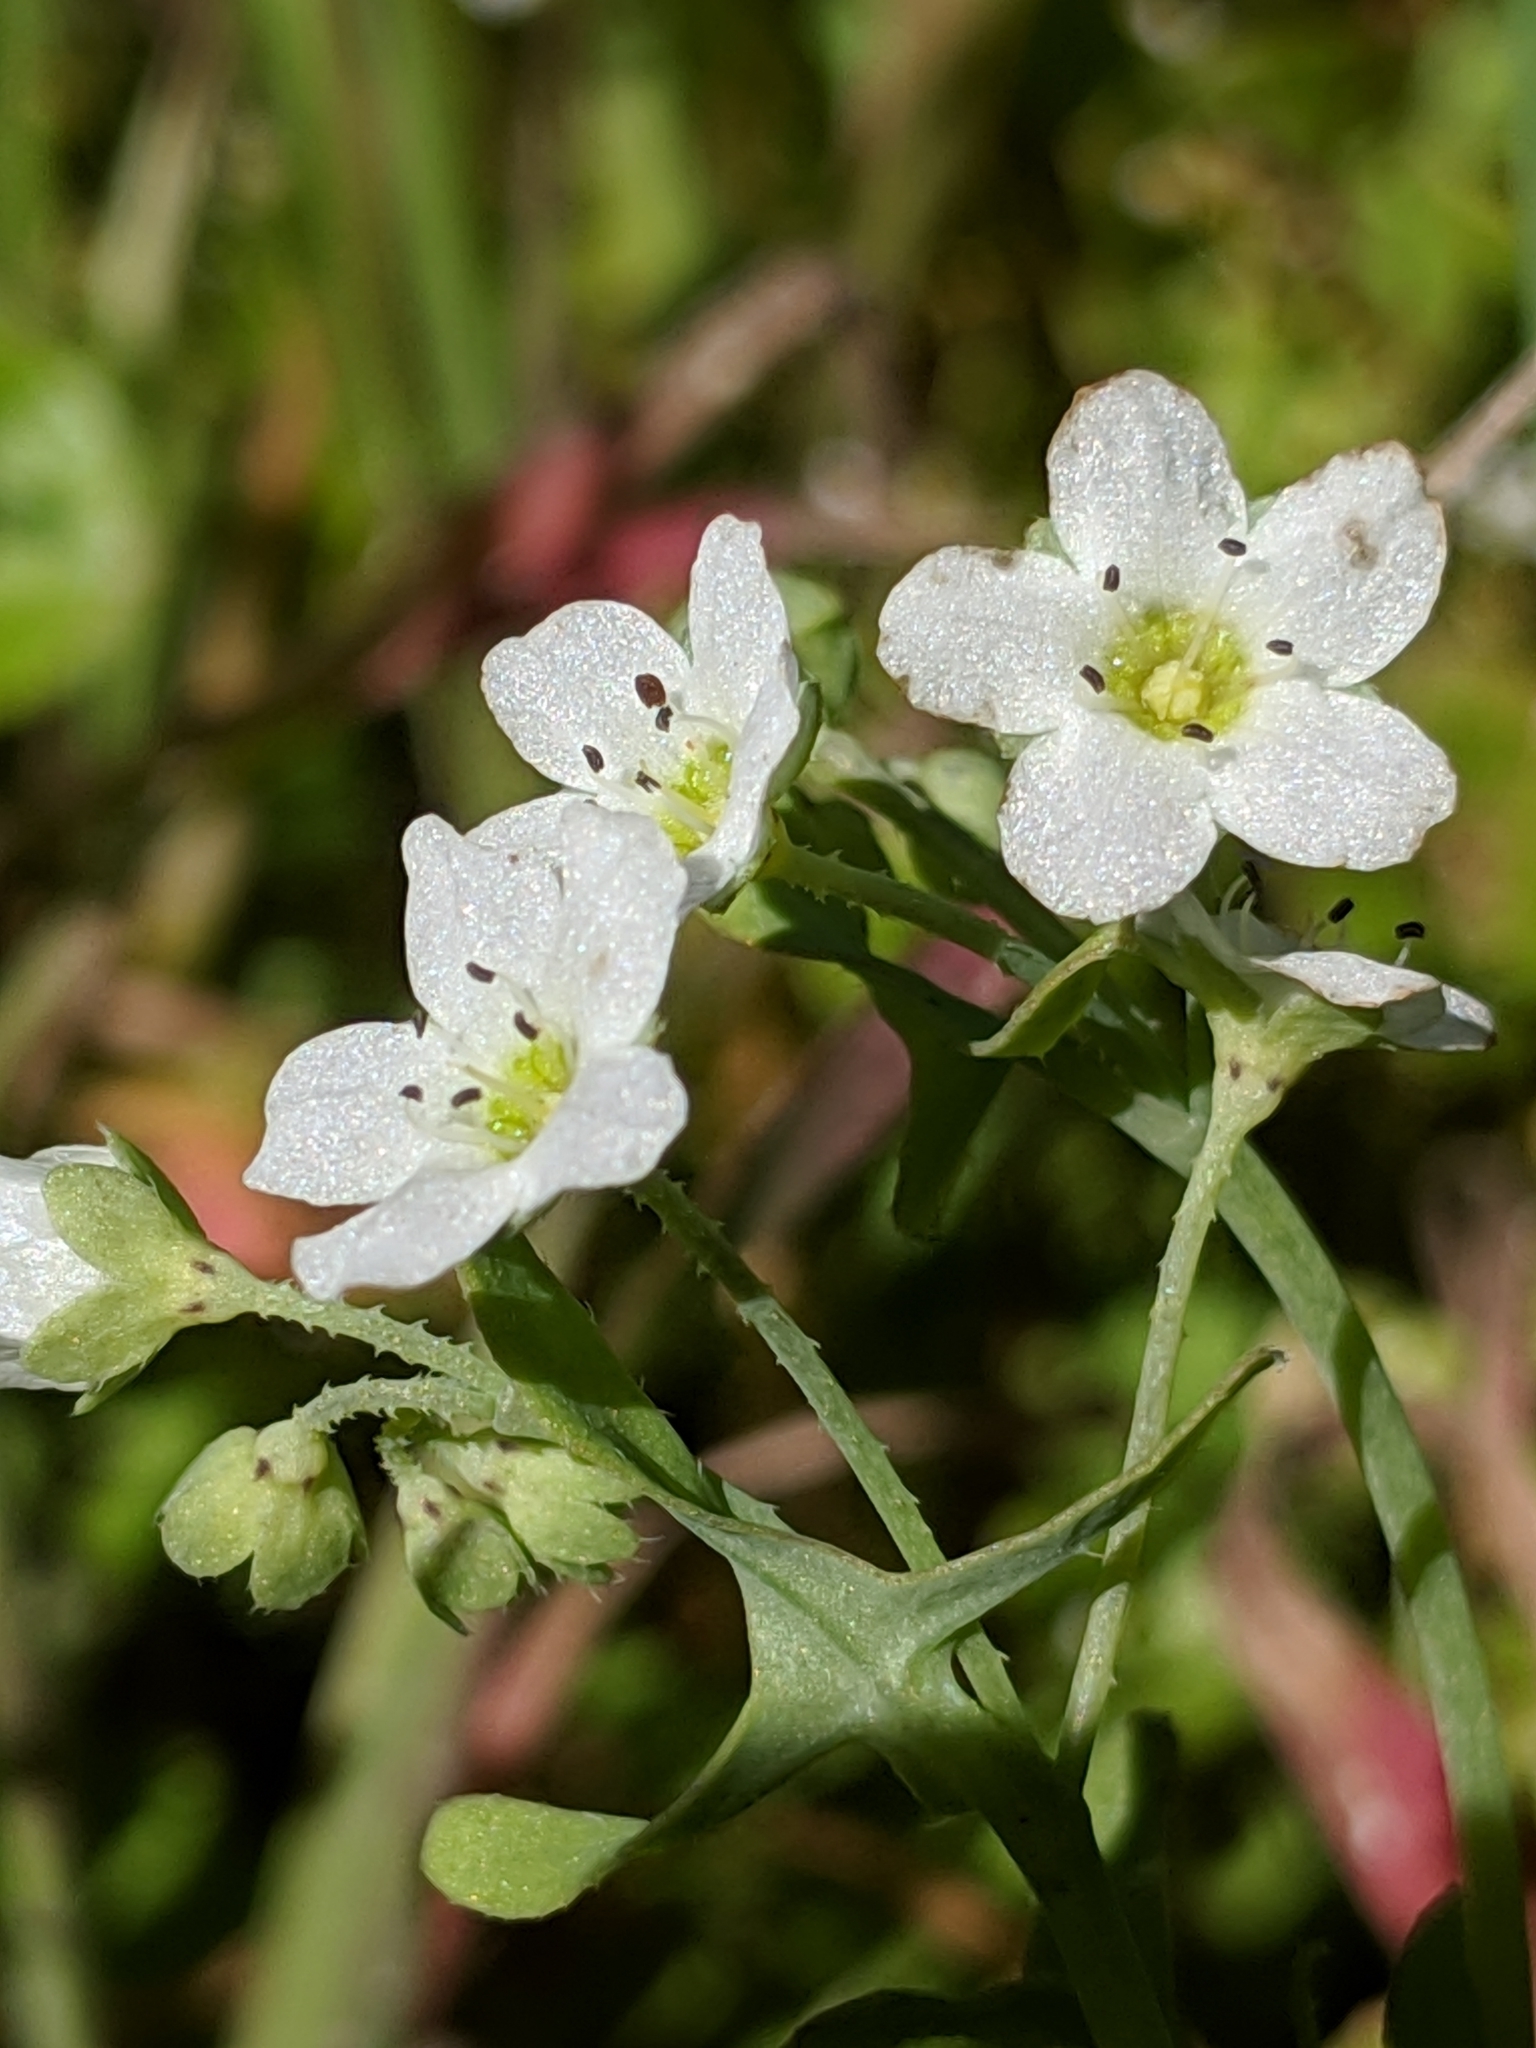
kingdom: Plantae
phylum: Tracheophyta
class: Magnoliopsida
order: Boraginales
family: Hydrophyllaceae
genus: Pholistoma
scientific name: Pholistoma membranaceum
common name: White fiesta-flower
